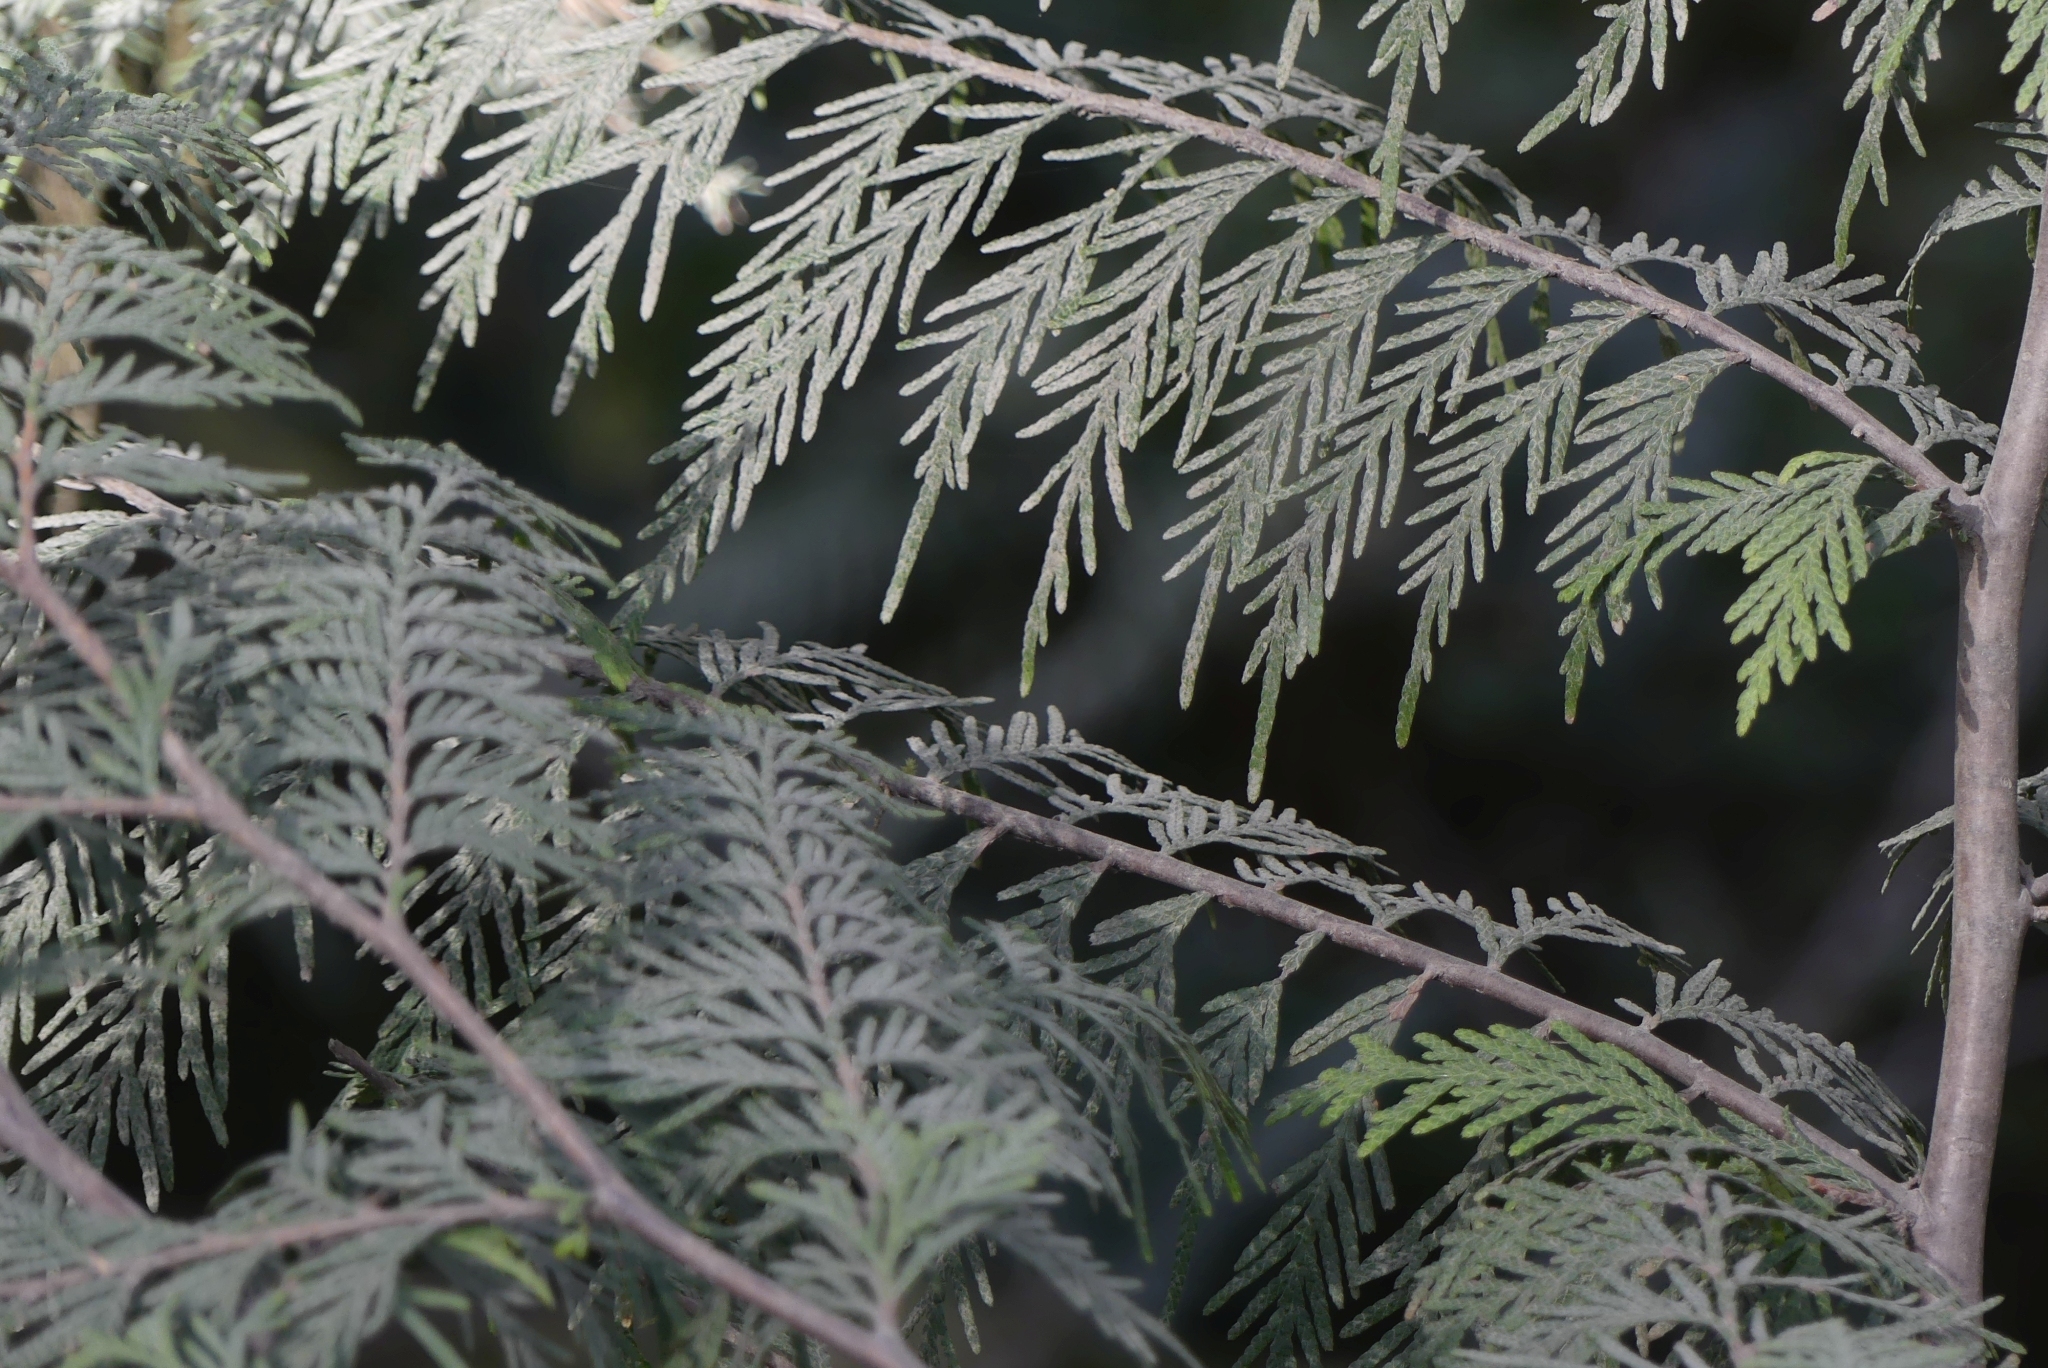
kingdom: Plantae
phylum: Tracheophyta
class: Pinopsida
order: Pinales
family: Cupressaceae
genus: Thuja
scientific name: Thuja plicata
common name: Western red-cedar
